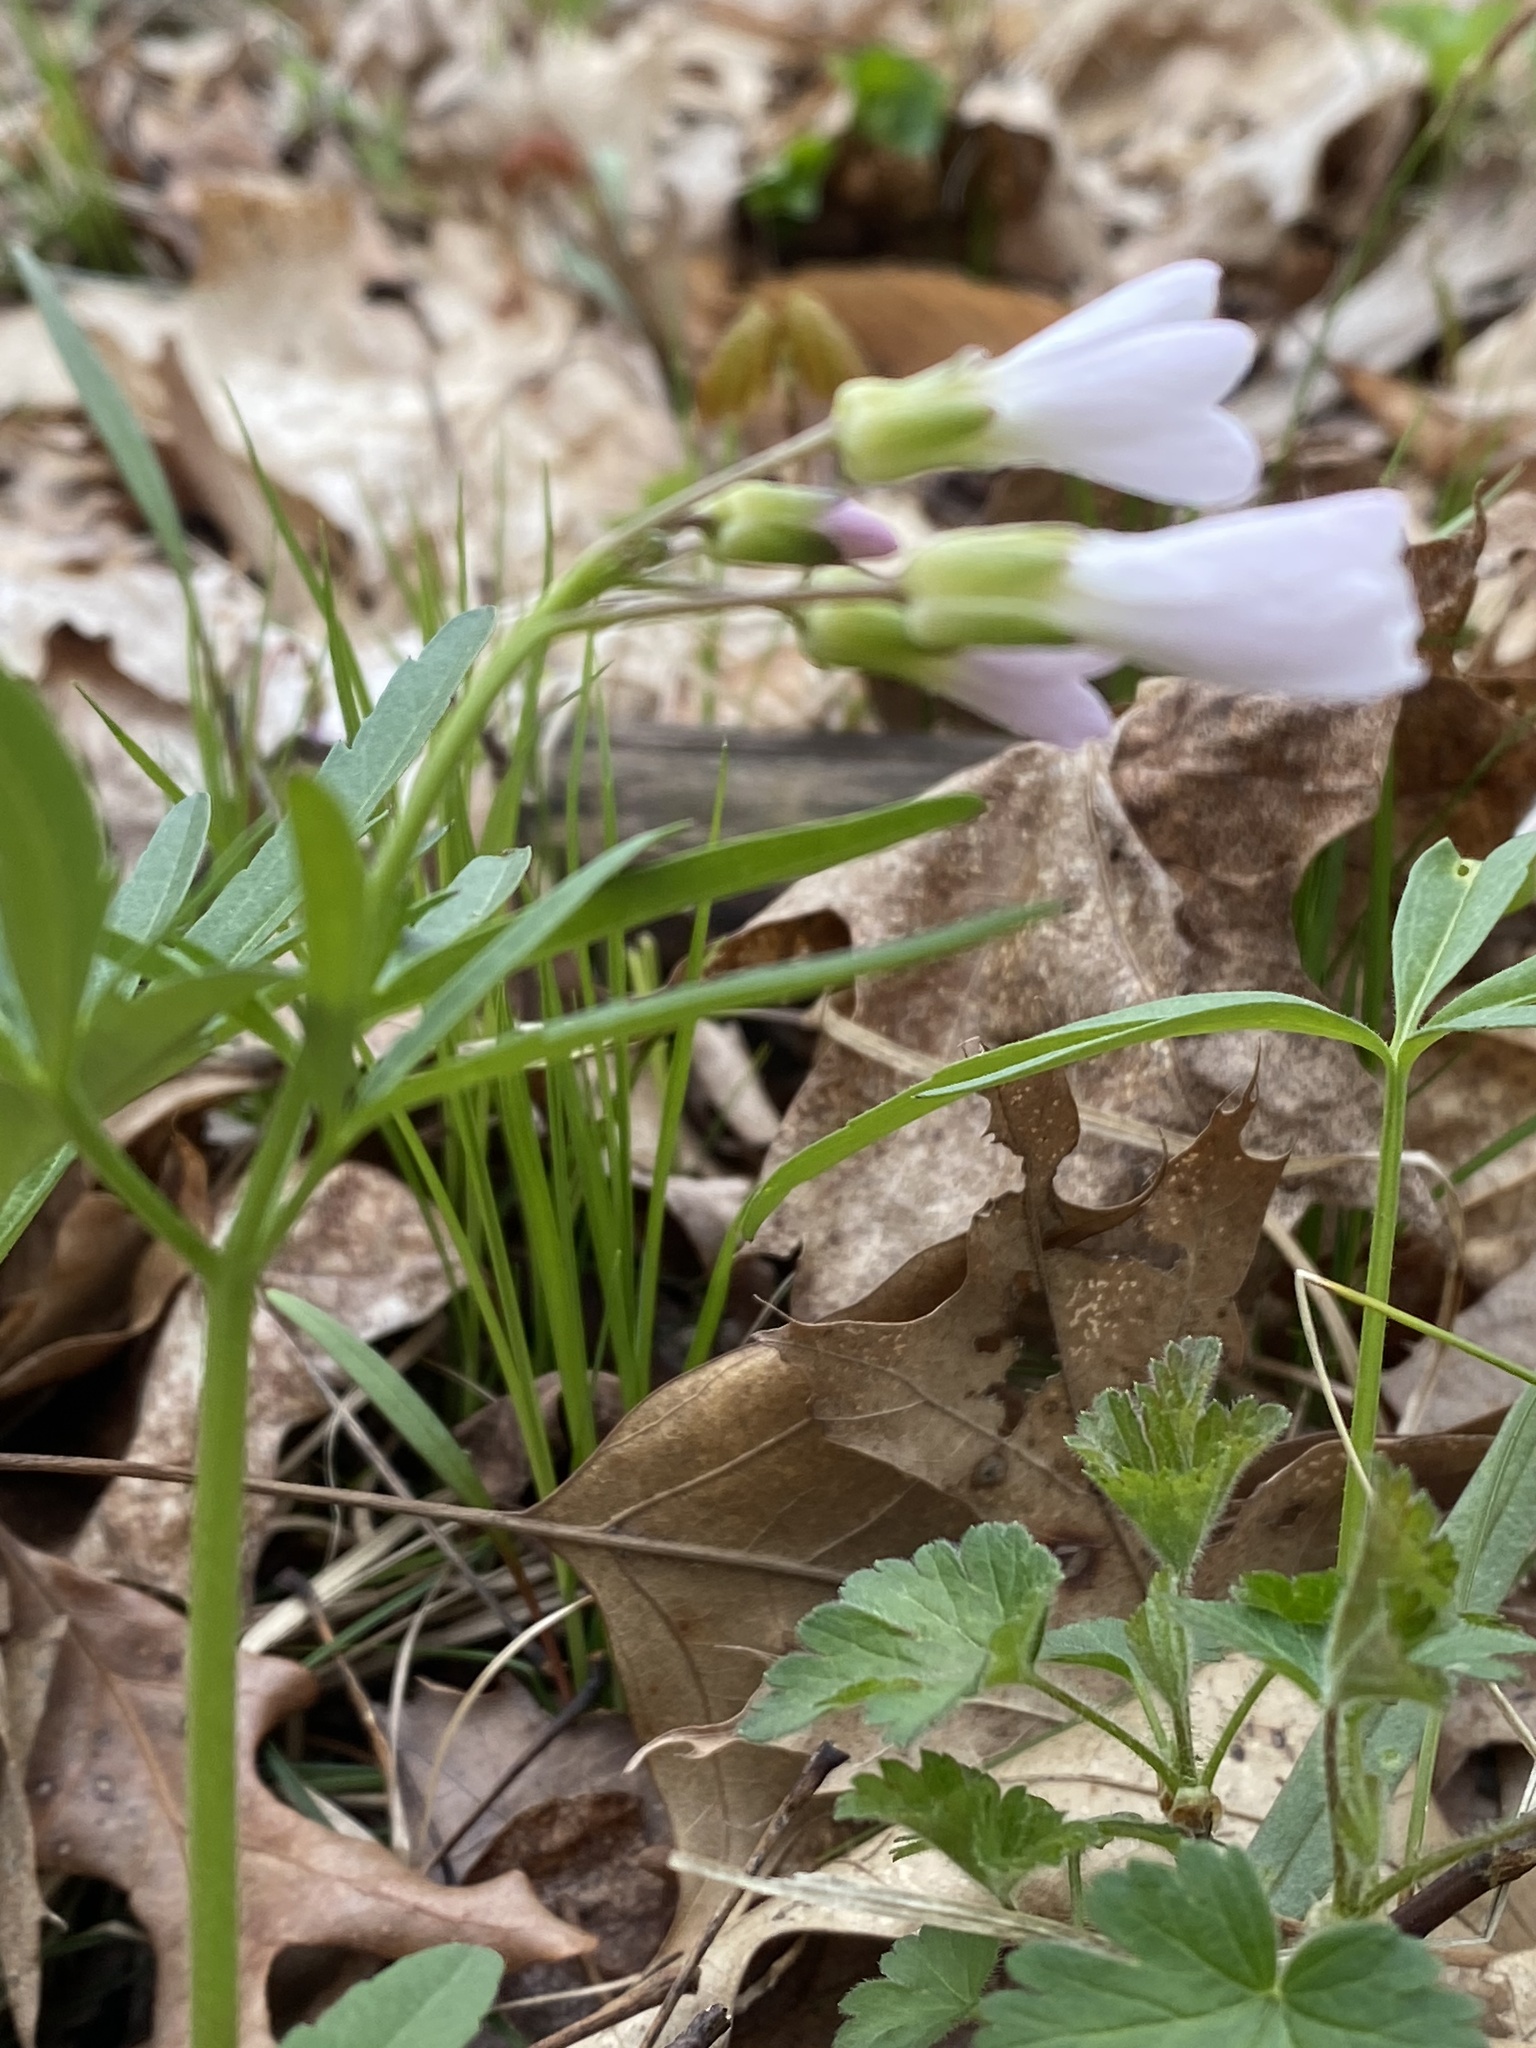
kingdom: Plantae
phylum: Tracheophyta
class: Magnoliopsida
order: Brassicales
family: Brassicaceae
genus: Cardamine
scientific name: Cardamine concatenata
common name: Cut-leaf toothcup
